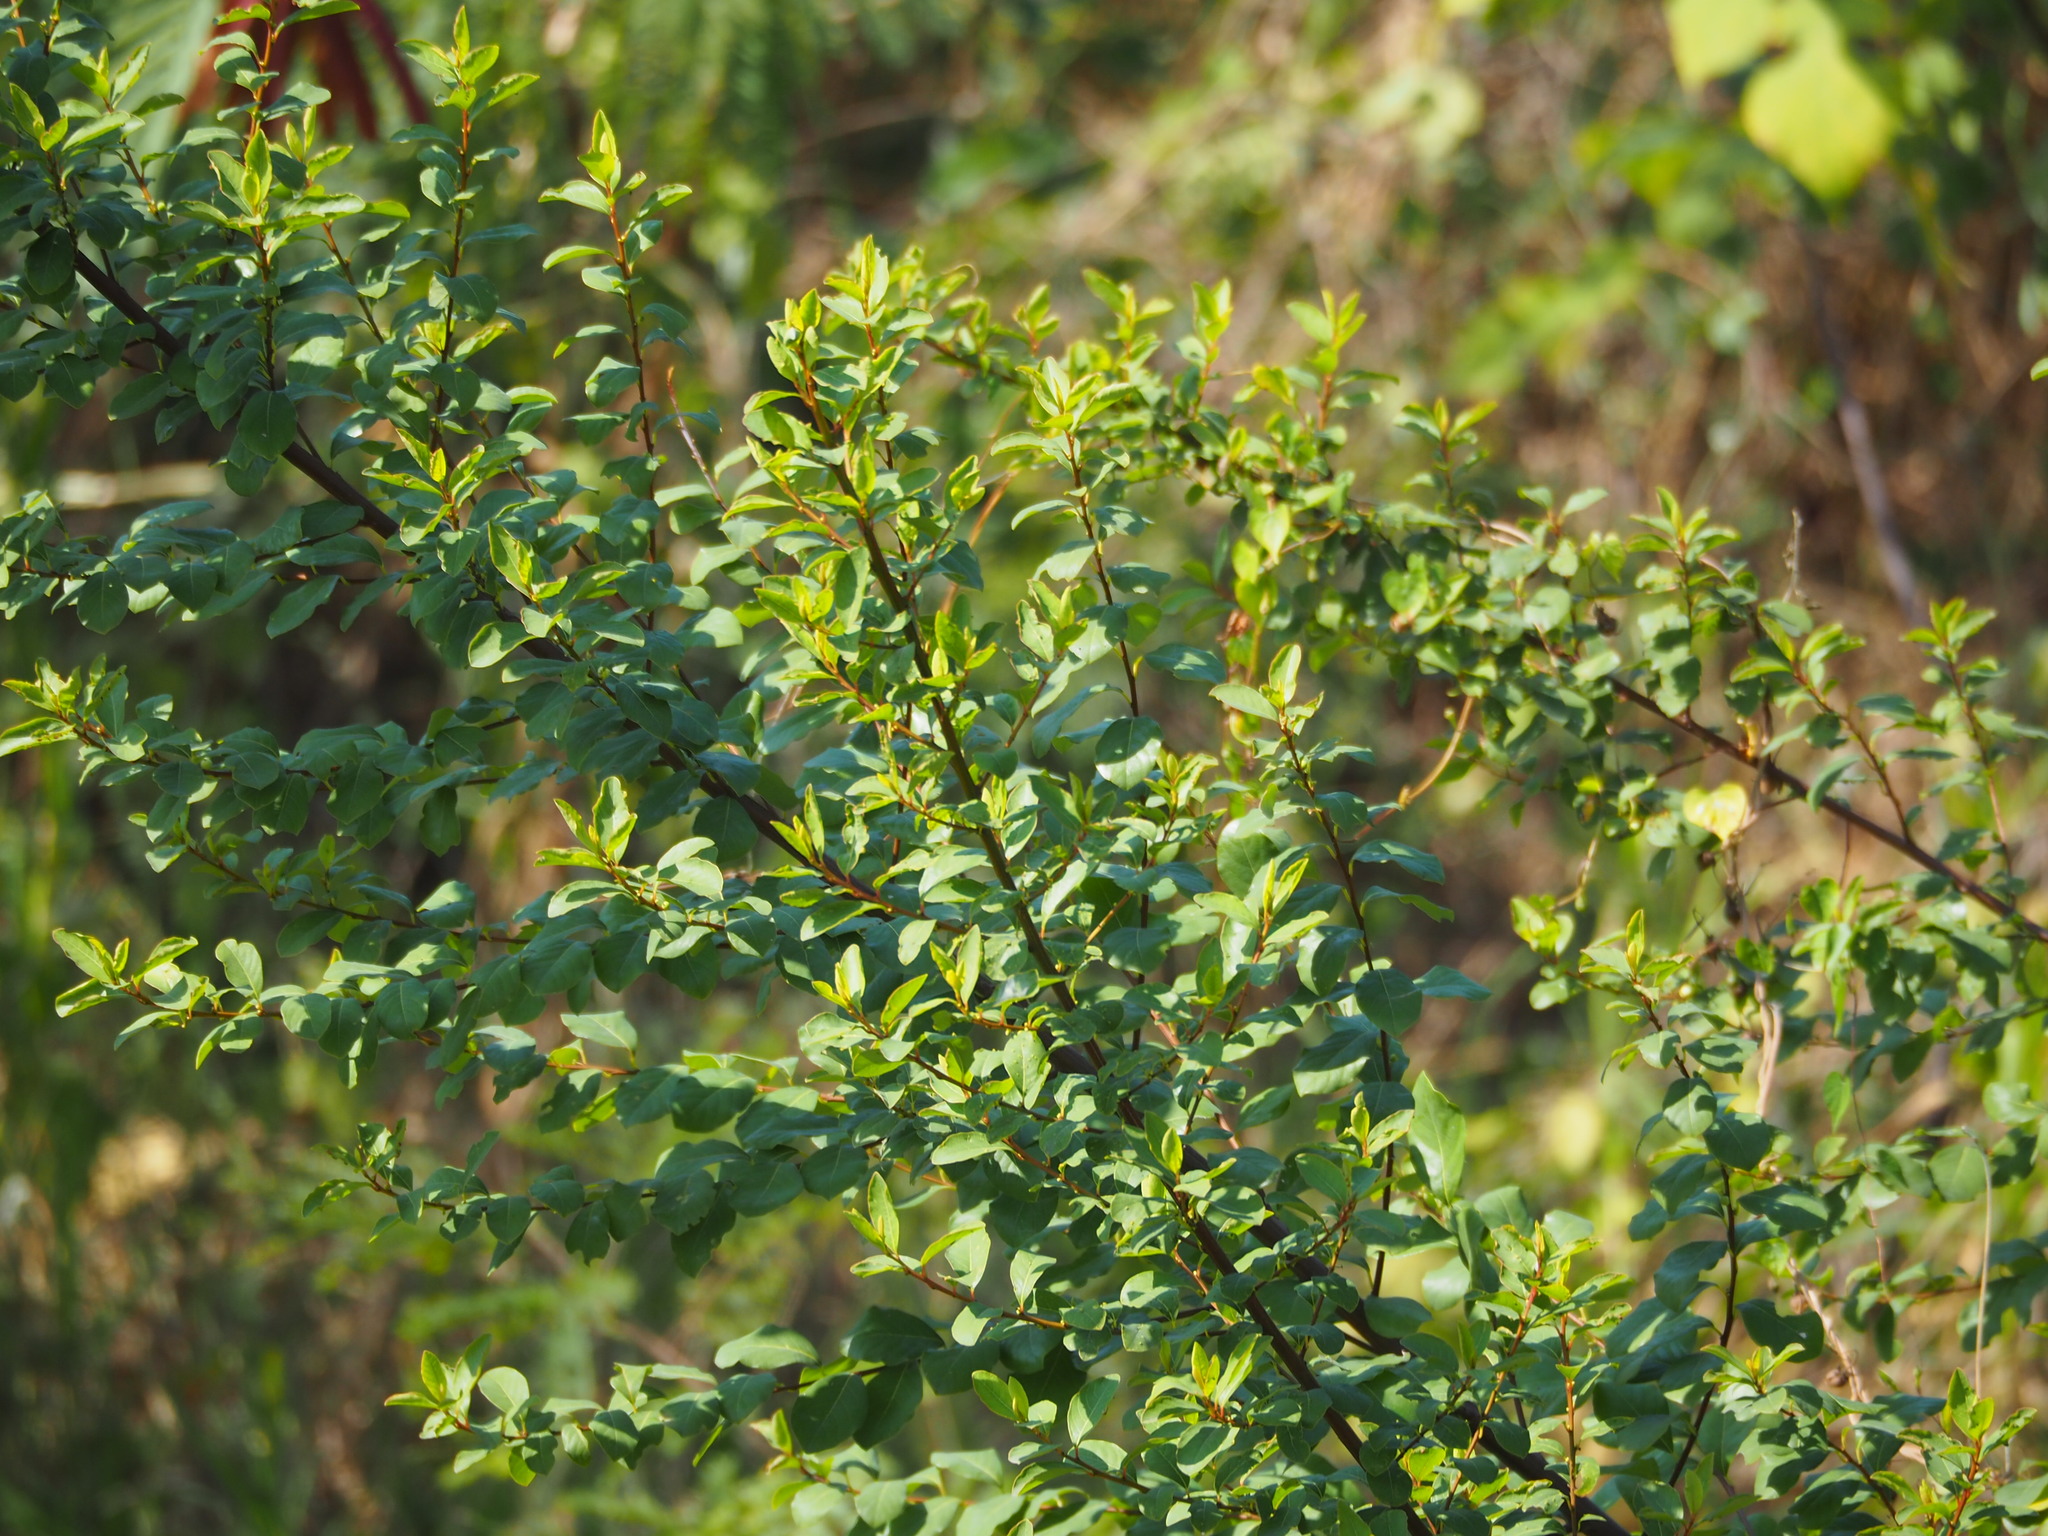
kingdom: Plantae
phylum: Tracheophyta
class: Magnoliopsida
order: Malpighiales
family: Phyllanthaceae
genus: Flueggea
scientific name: Flueggea virosa
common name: Common bushweed
